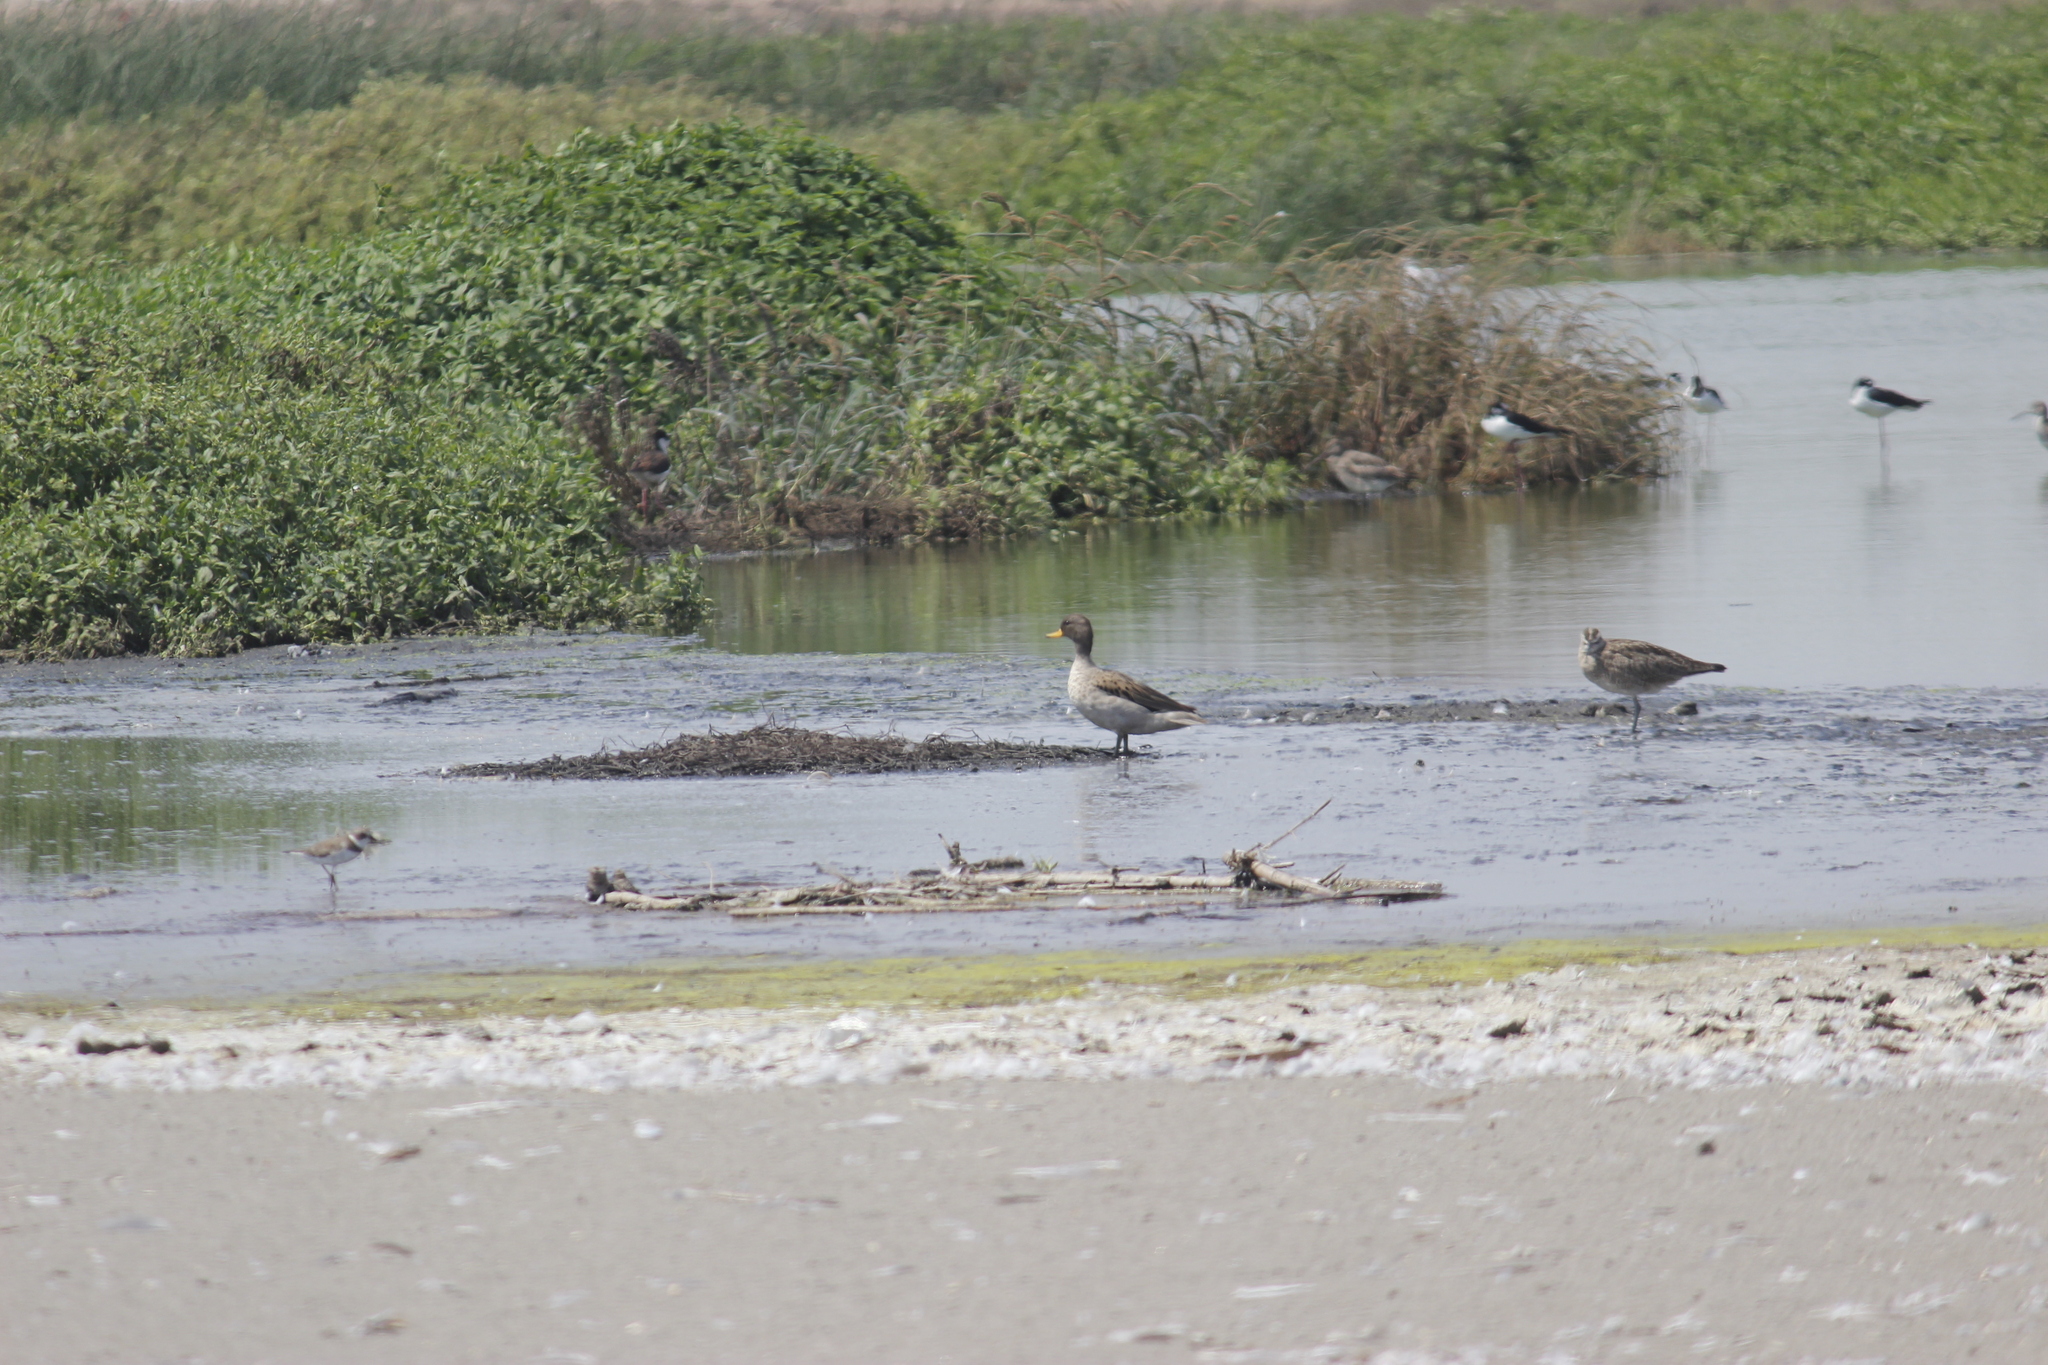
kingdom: Animalia
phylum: Chordata
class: Aves
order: Anseriformes
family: Anatidae
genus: Anas
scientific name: Anas flavirostris
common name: Yellow-billed teal
